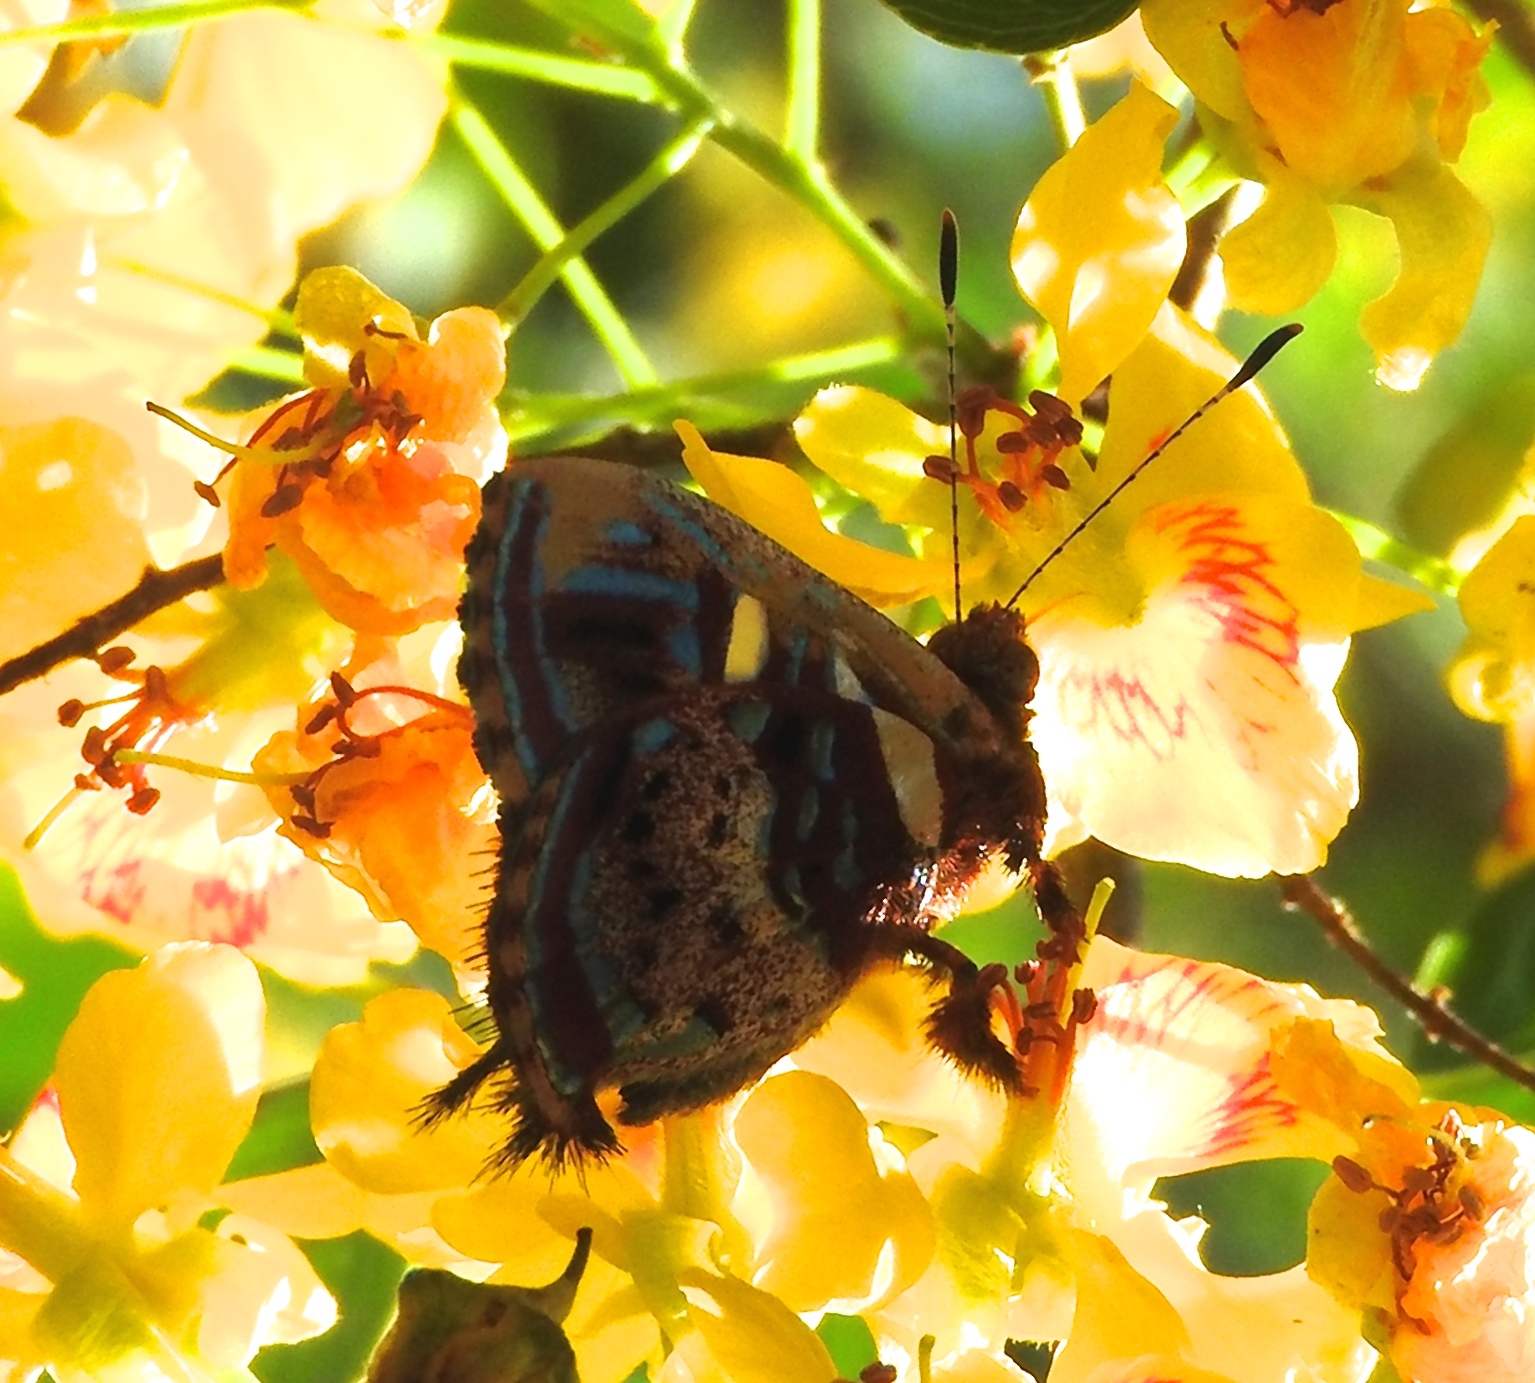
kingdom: Animalia
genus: Anteros
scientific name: Anteros carausius
